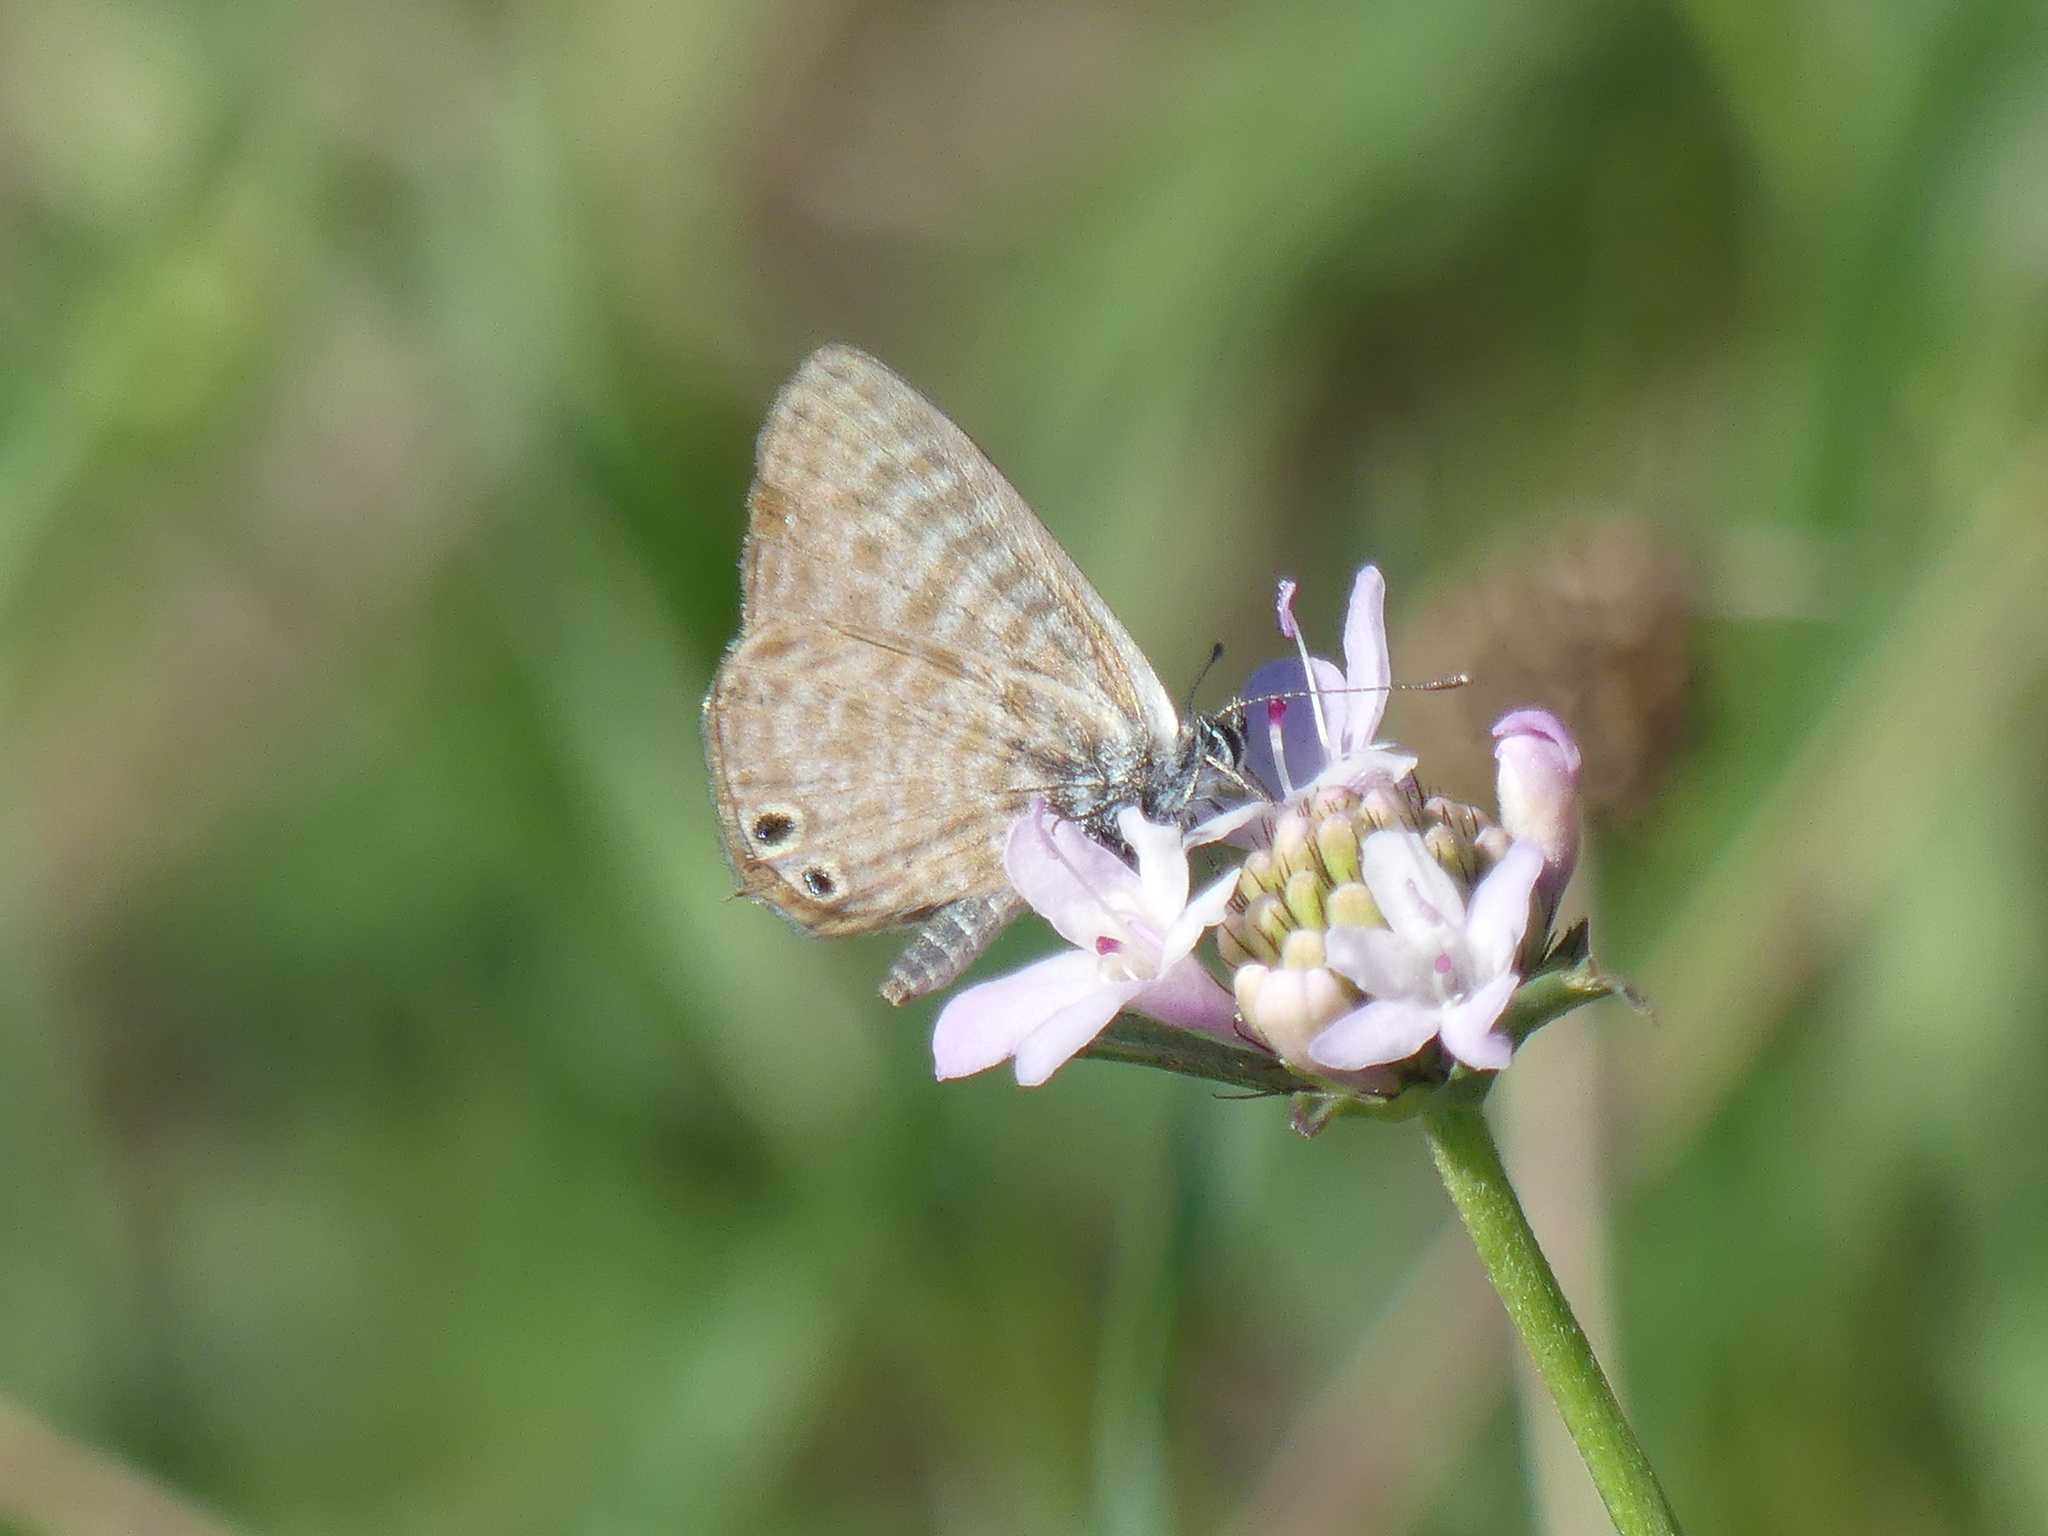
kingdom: Animalia
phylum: Arthropoda
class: Insecta
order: Lepidoptera
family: Lycaenidae
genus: Leptotes
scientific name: Leptotes pirithous
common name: Lang's short-tailed blue
